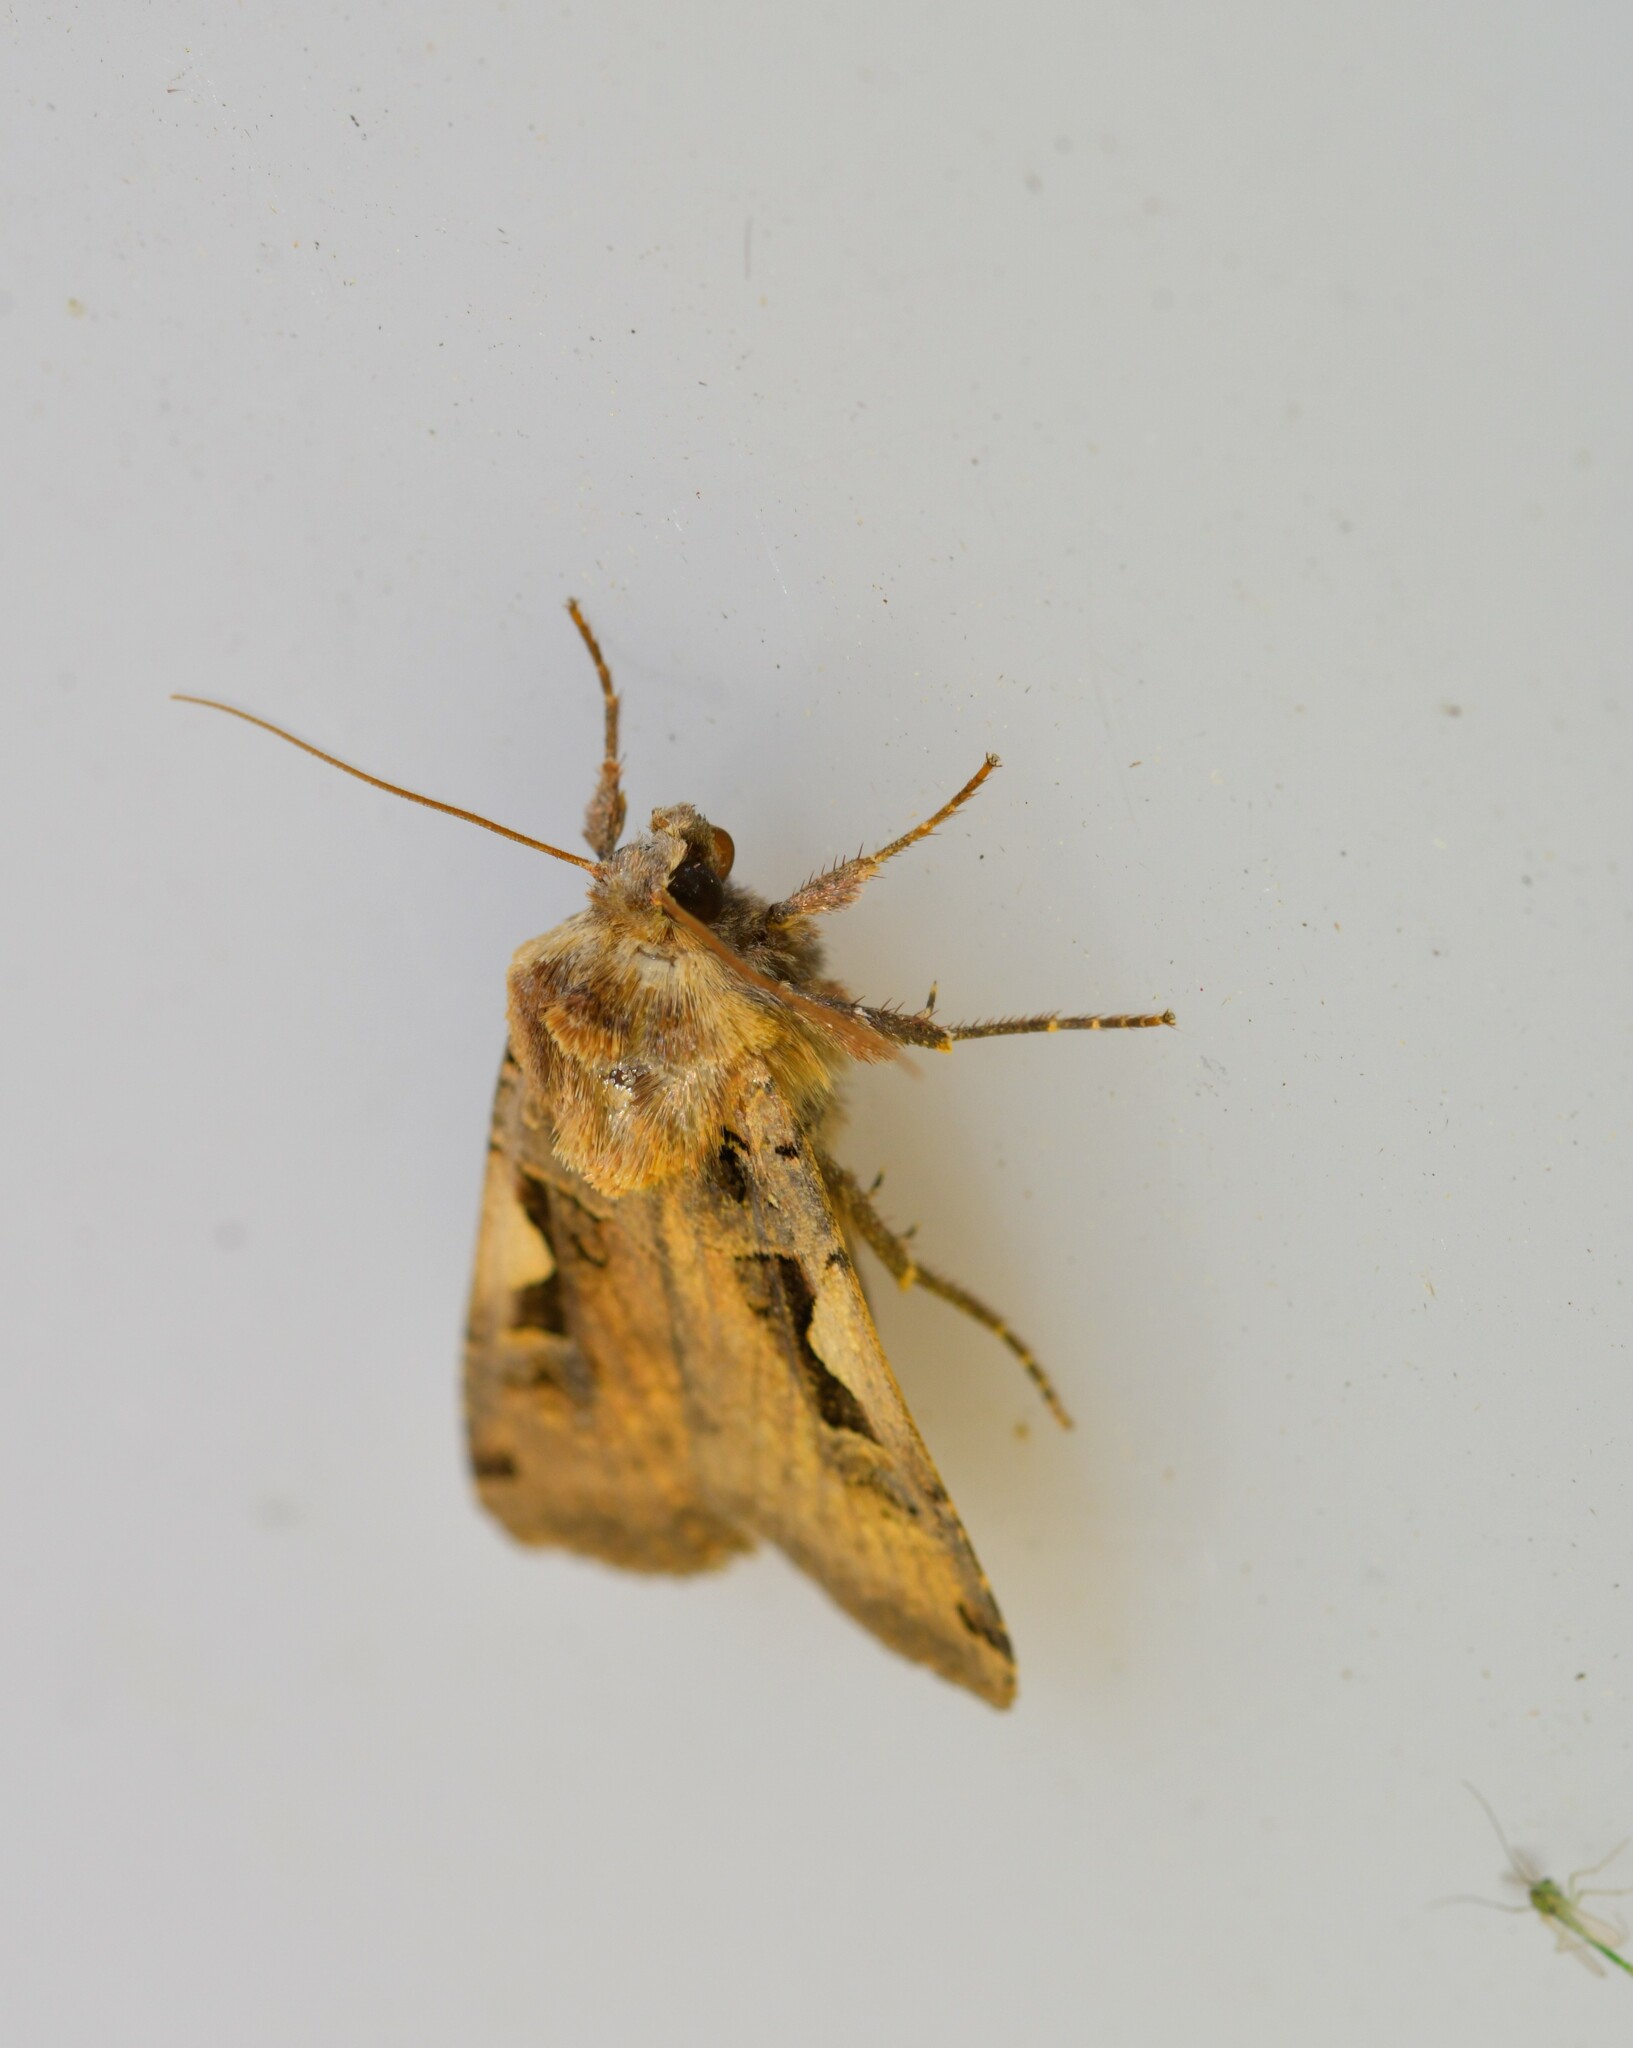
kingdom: Animalia
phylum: Arthropoda
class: Insecta
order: Lepidoptera
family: Noctuidae
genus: Xestia
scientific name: Xestia c-nigrum
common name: Setaceous hebrew character
